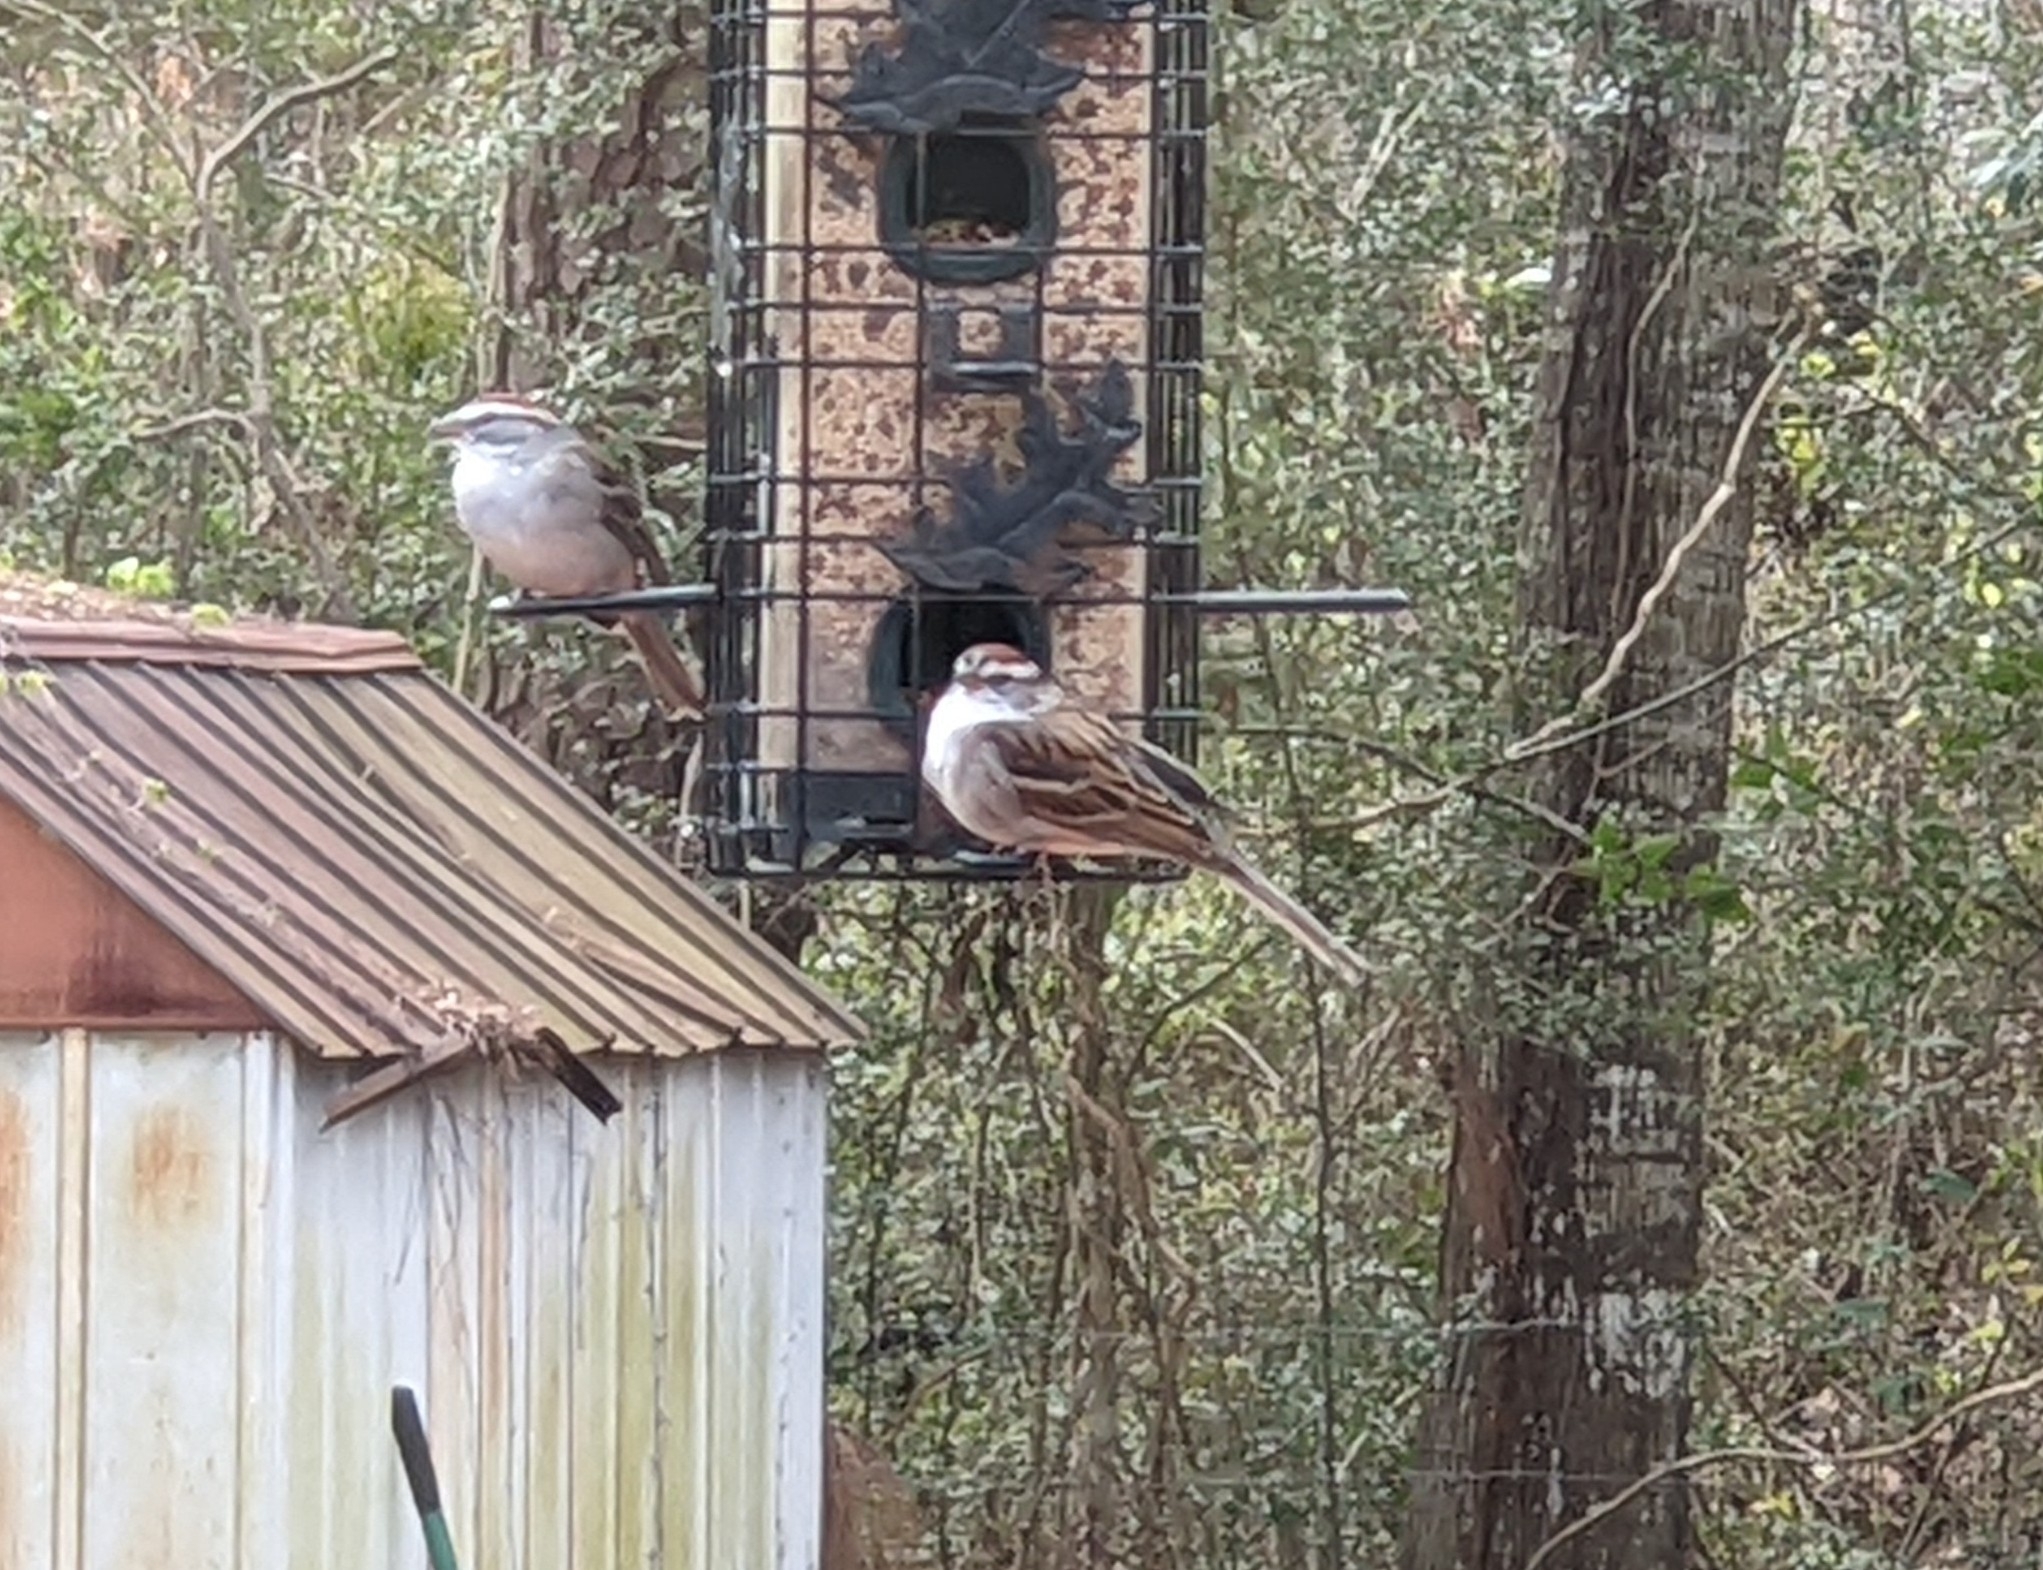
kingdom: Animalia
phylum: Chordata
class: Aves
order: Passeriformes
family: Passerellidae
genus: Spizella
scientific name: Spizella passerina
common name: Chipping sparrow
